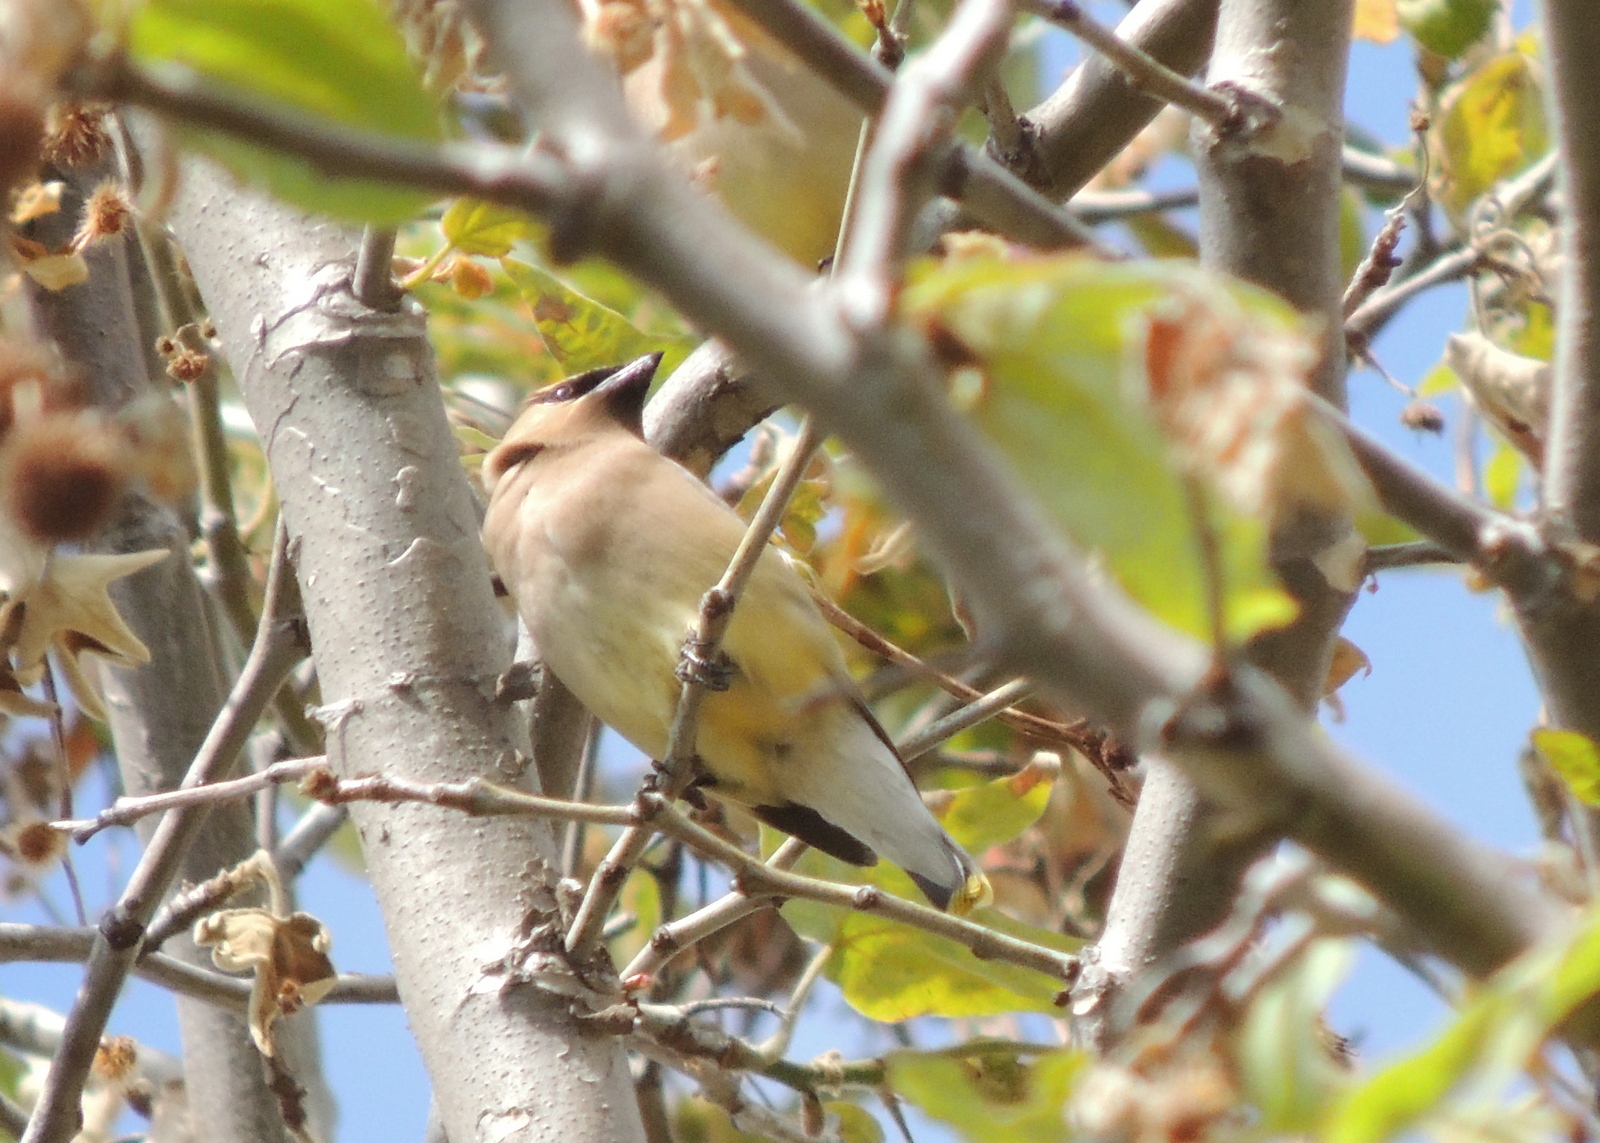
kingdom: Animalia
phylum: Chordata
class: Aves
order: Passeriformes
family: Bombycillidae
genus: Bombycilla
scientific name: Bombycilla cedrorum
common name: Cedar waxwing
